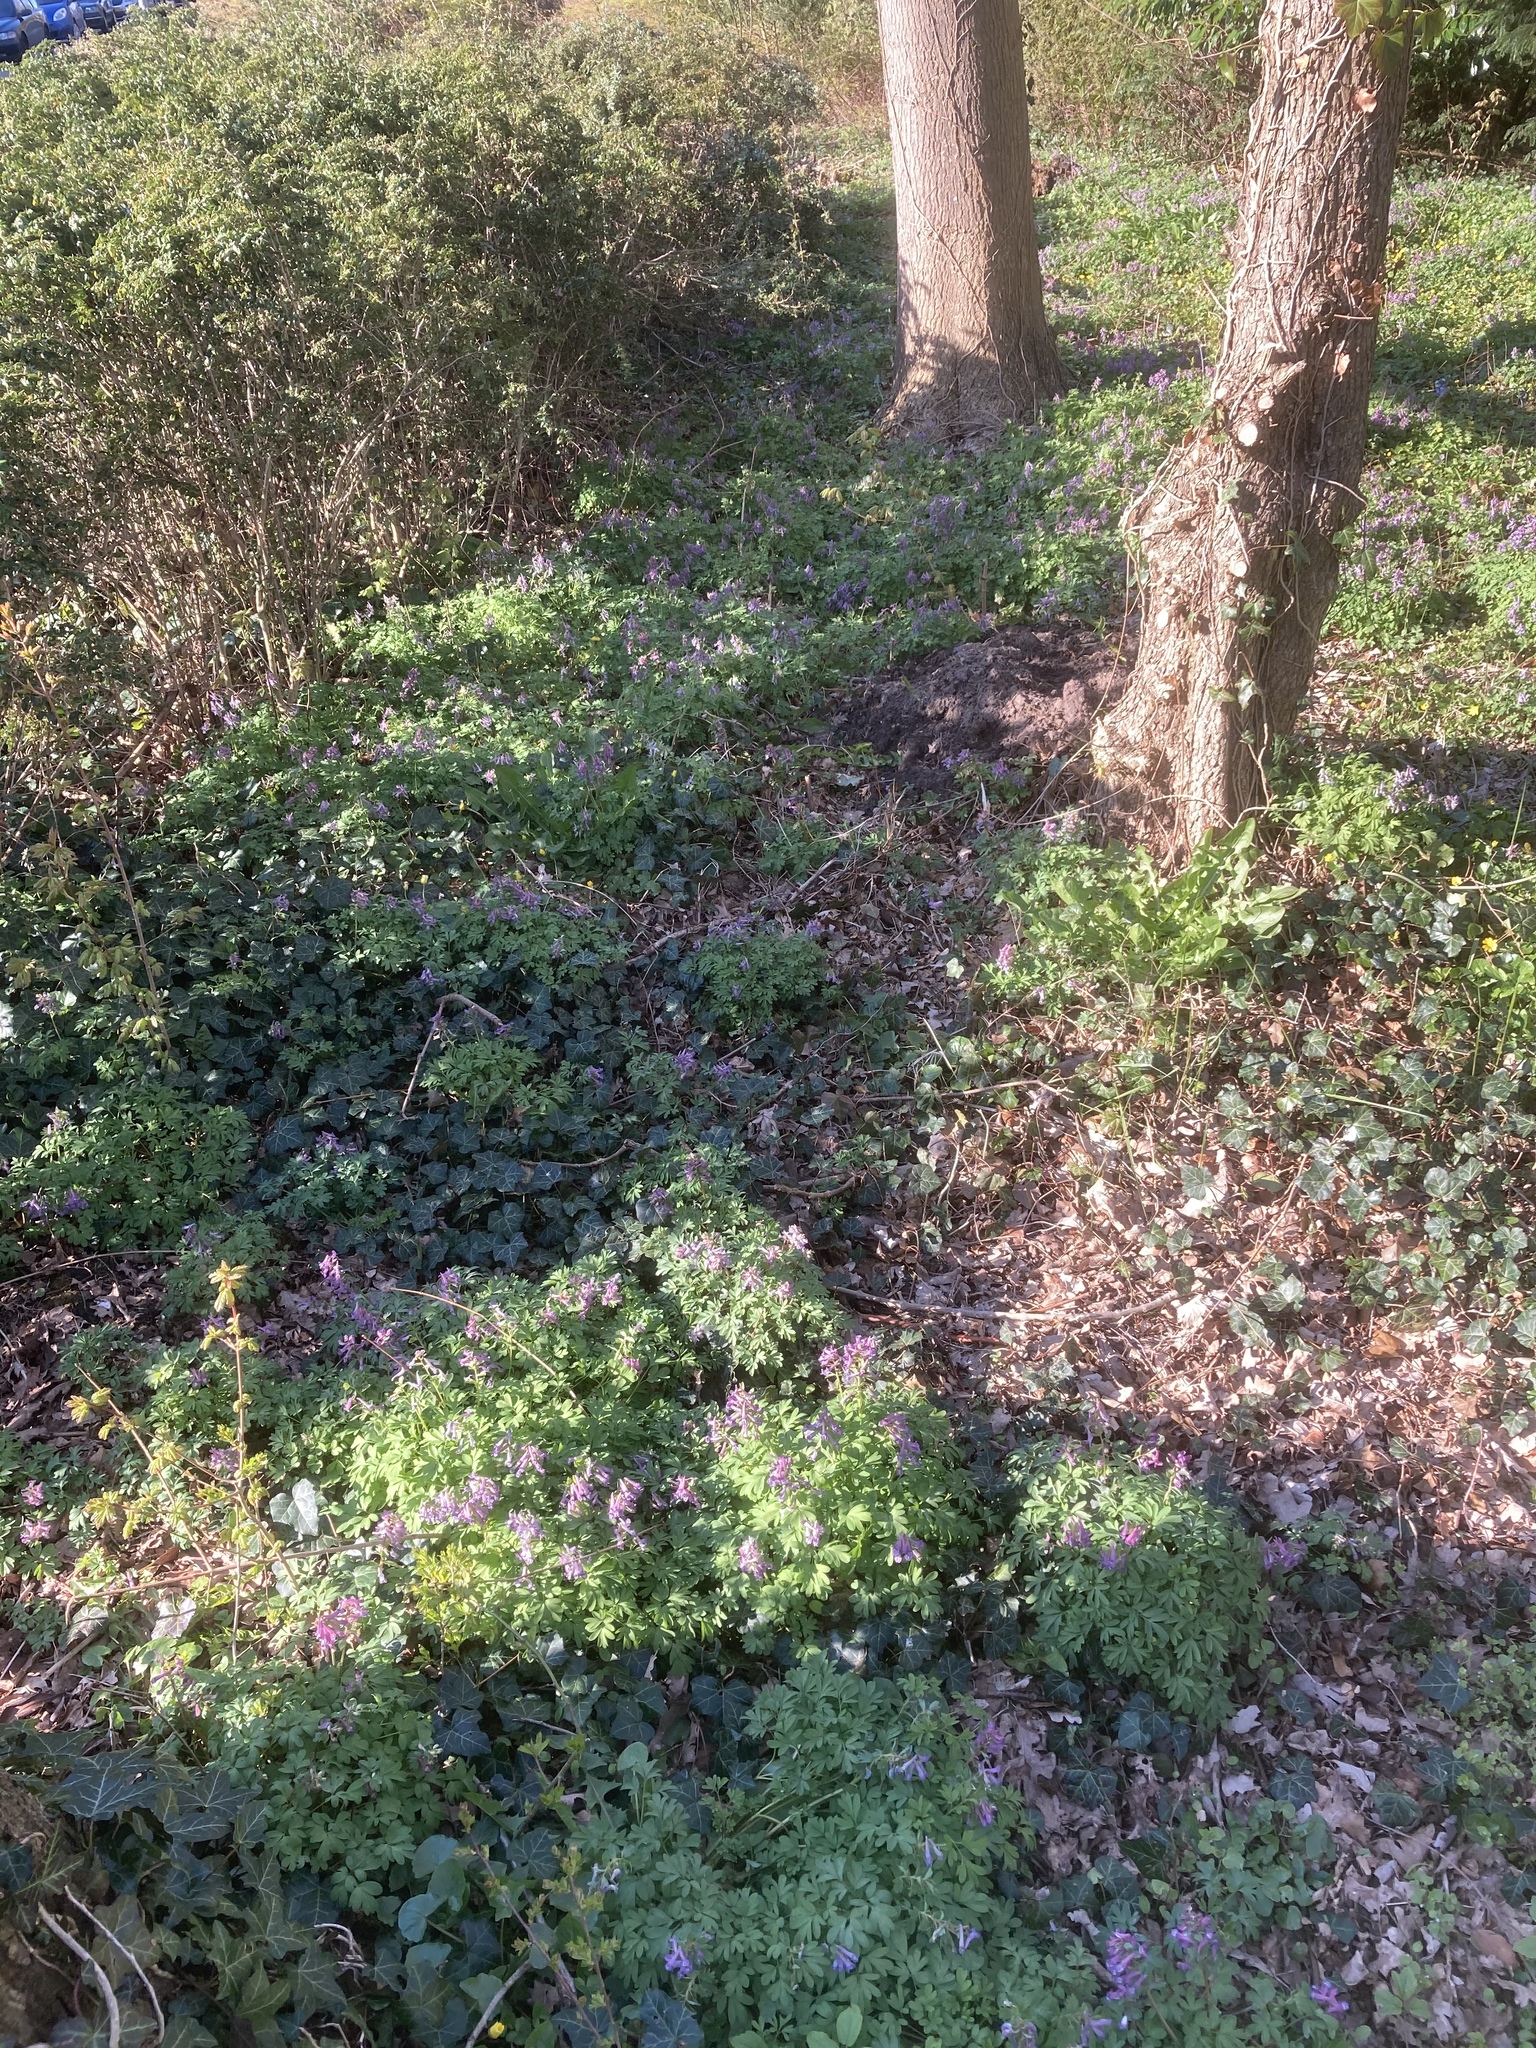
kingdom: Plantae
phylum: Tracheophyta
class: Magnoliopsida
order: Ranunculales
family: Papaveraceae
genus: Corydalis
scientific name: Corydalis solida
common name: Bird-in-a-bush
